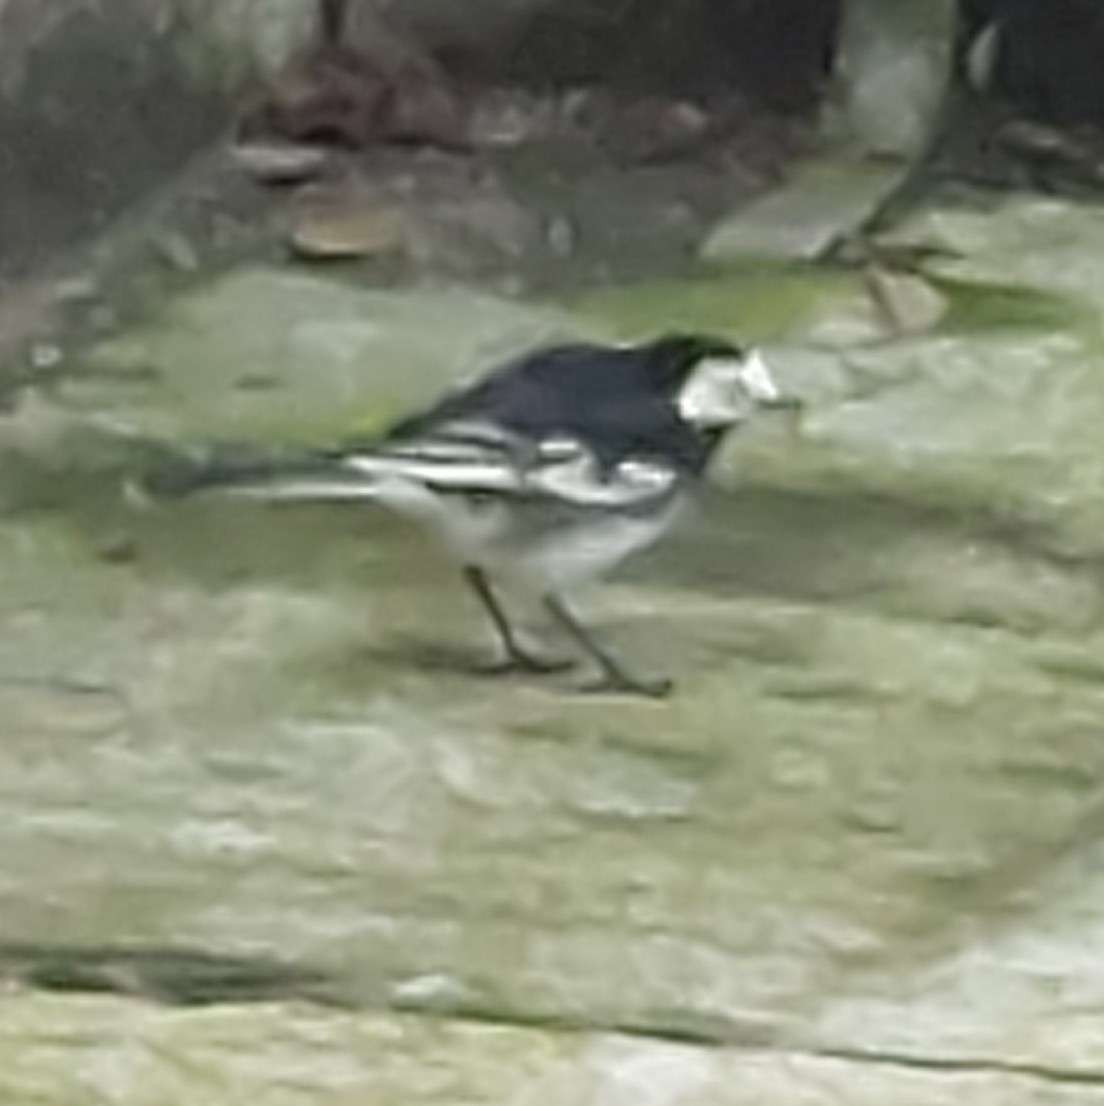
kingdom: Animalia
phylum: Chordata
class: Aves
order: Passeriformes
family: Motacillidae
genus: Motacilla
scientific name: Motacilla alba
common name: White wagtail
